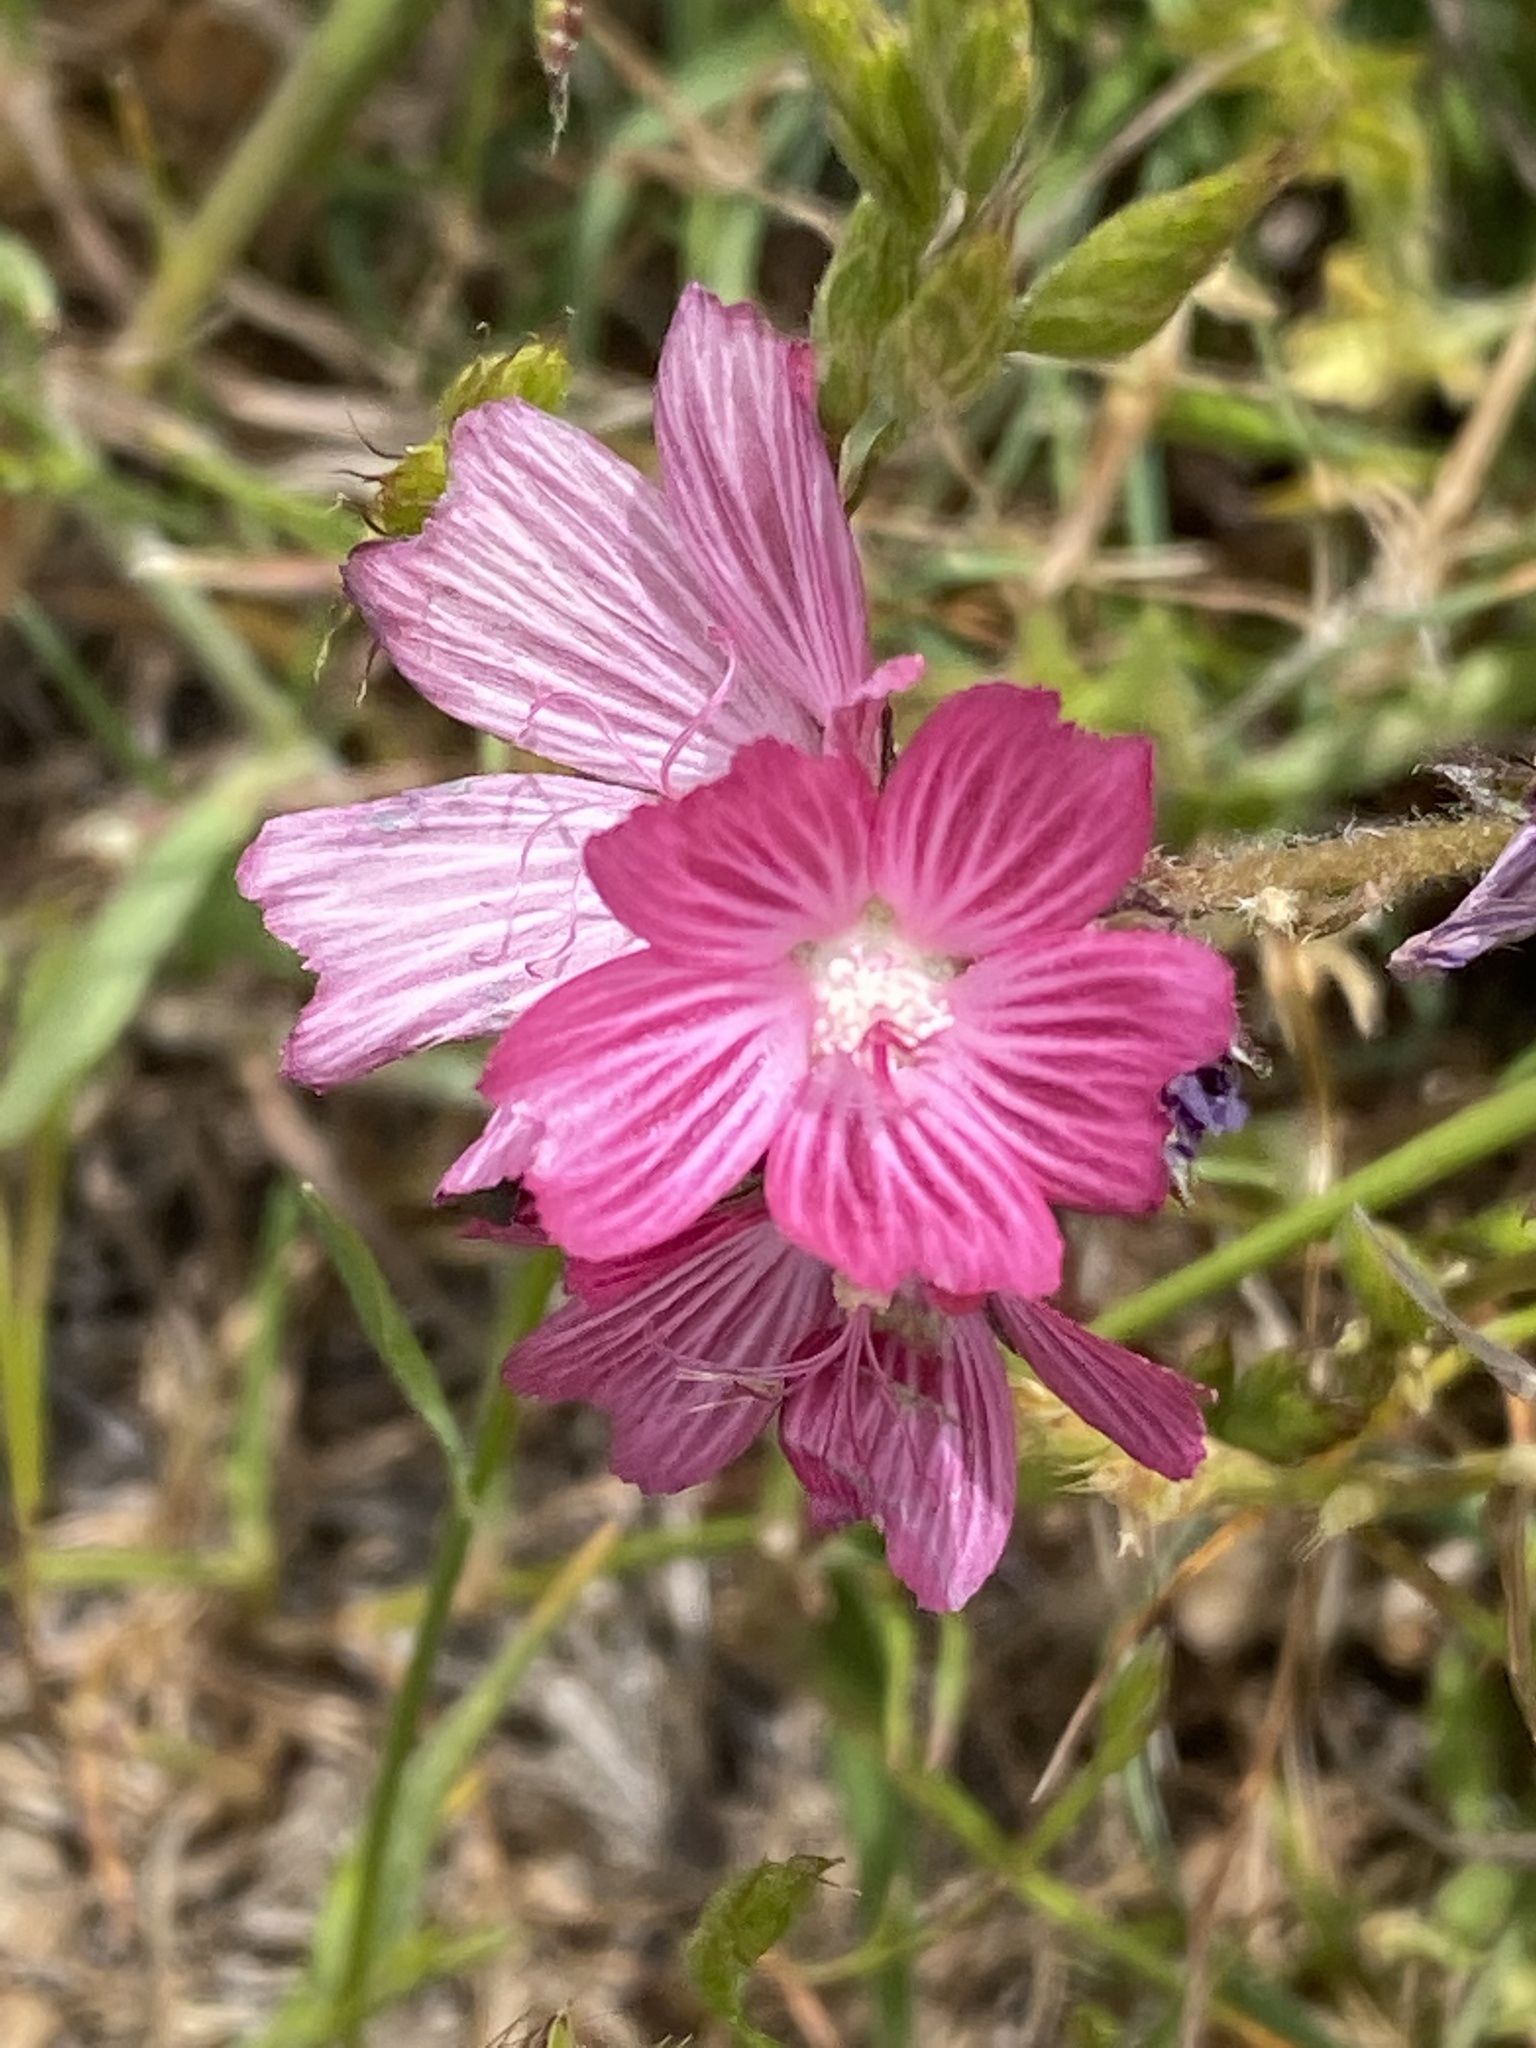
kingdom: Plantae
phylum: Tracheophyta
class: Magnoliopsida
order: Malvales
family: Malvaceae
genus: Sidalcea
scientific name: Sidalcea malviflora
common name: Greek mallow
